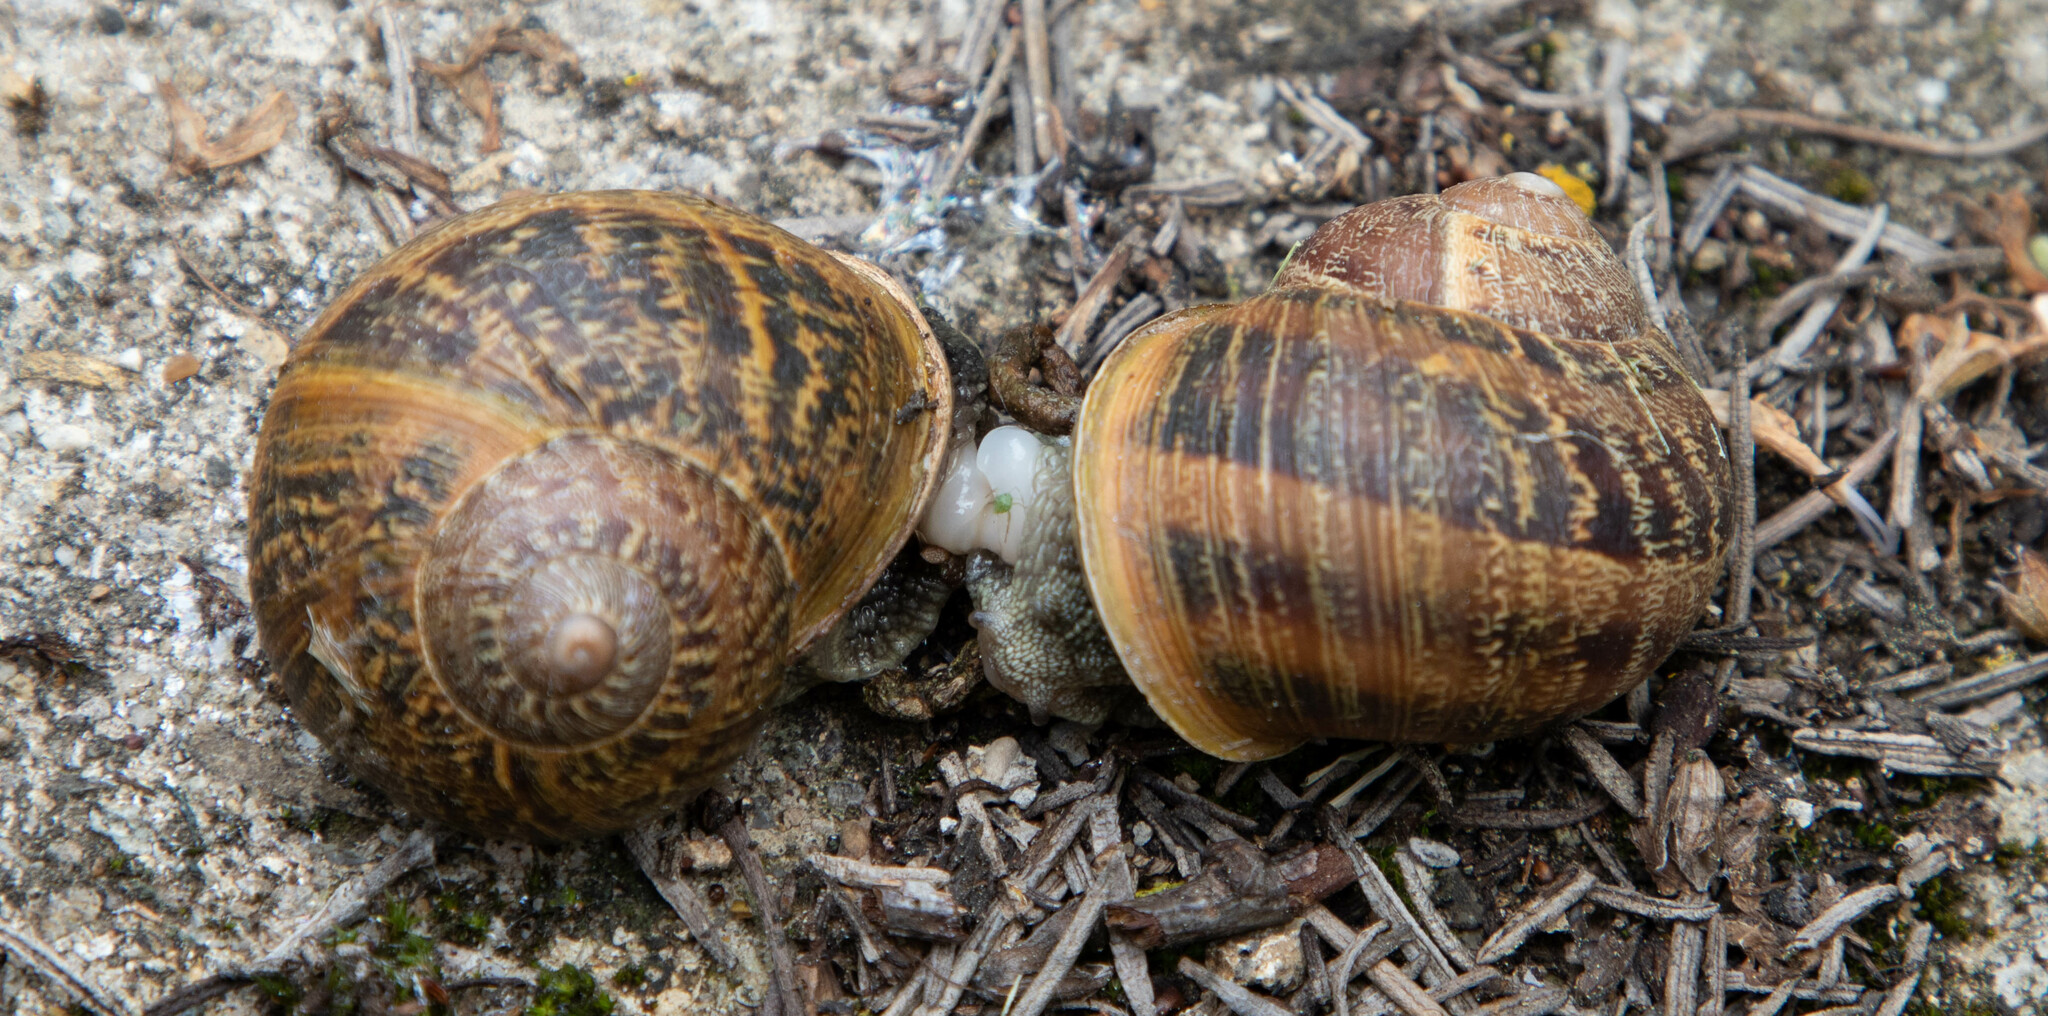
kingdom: Animalia
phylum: Mollusca
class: Gastropoda
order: Stylommatophora
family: Helicidae
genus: Cornu
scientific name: Cornu aspersum
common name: Brown garden snail
